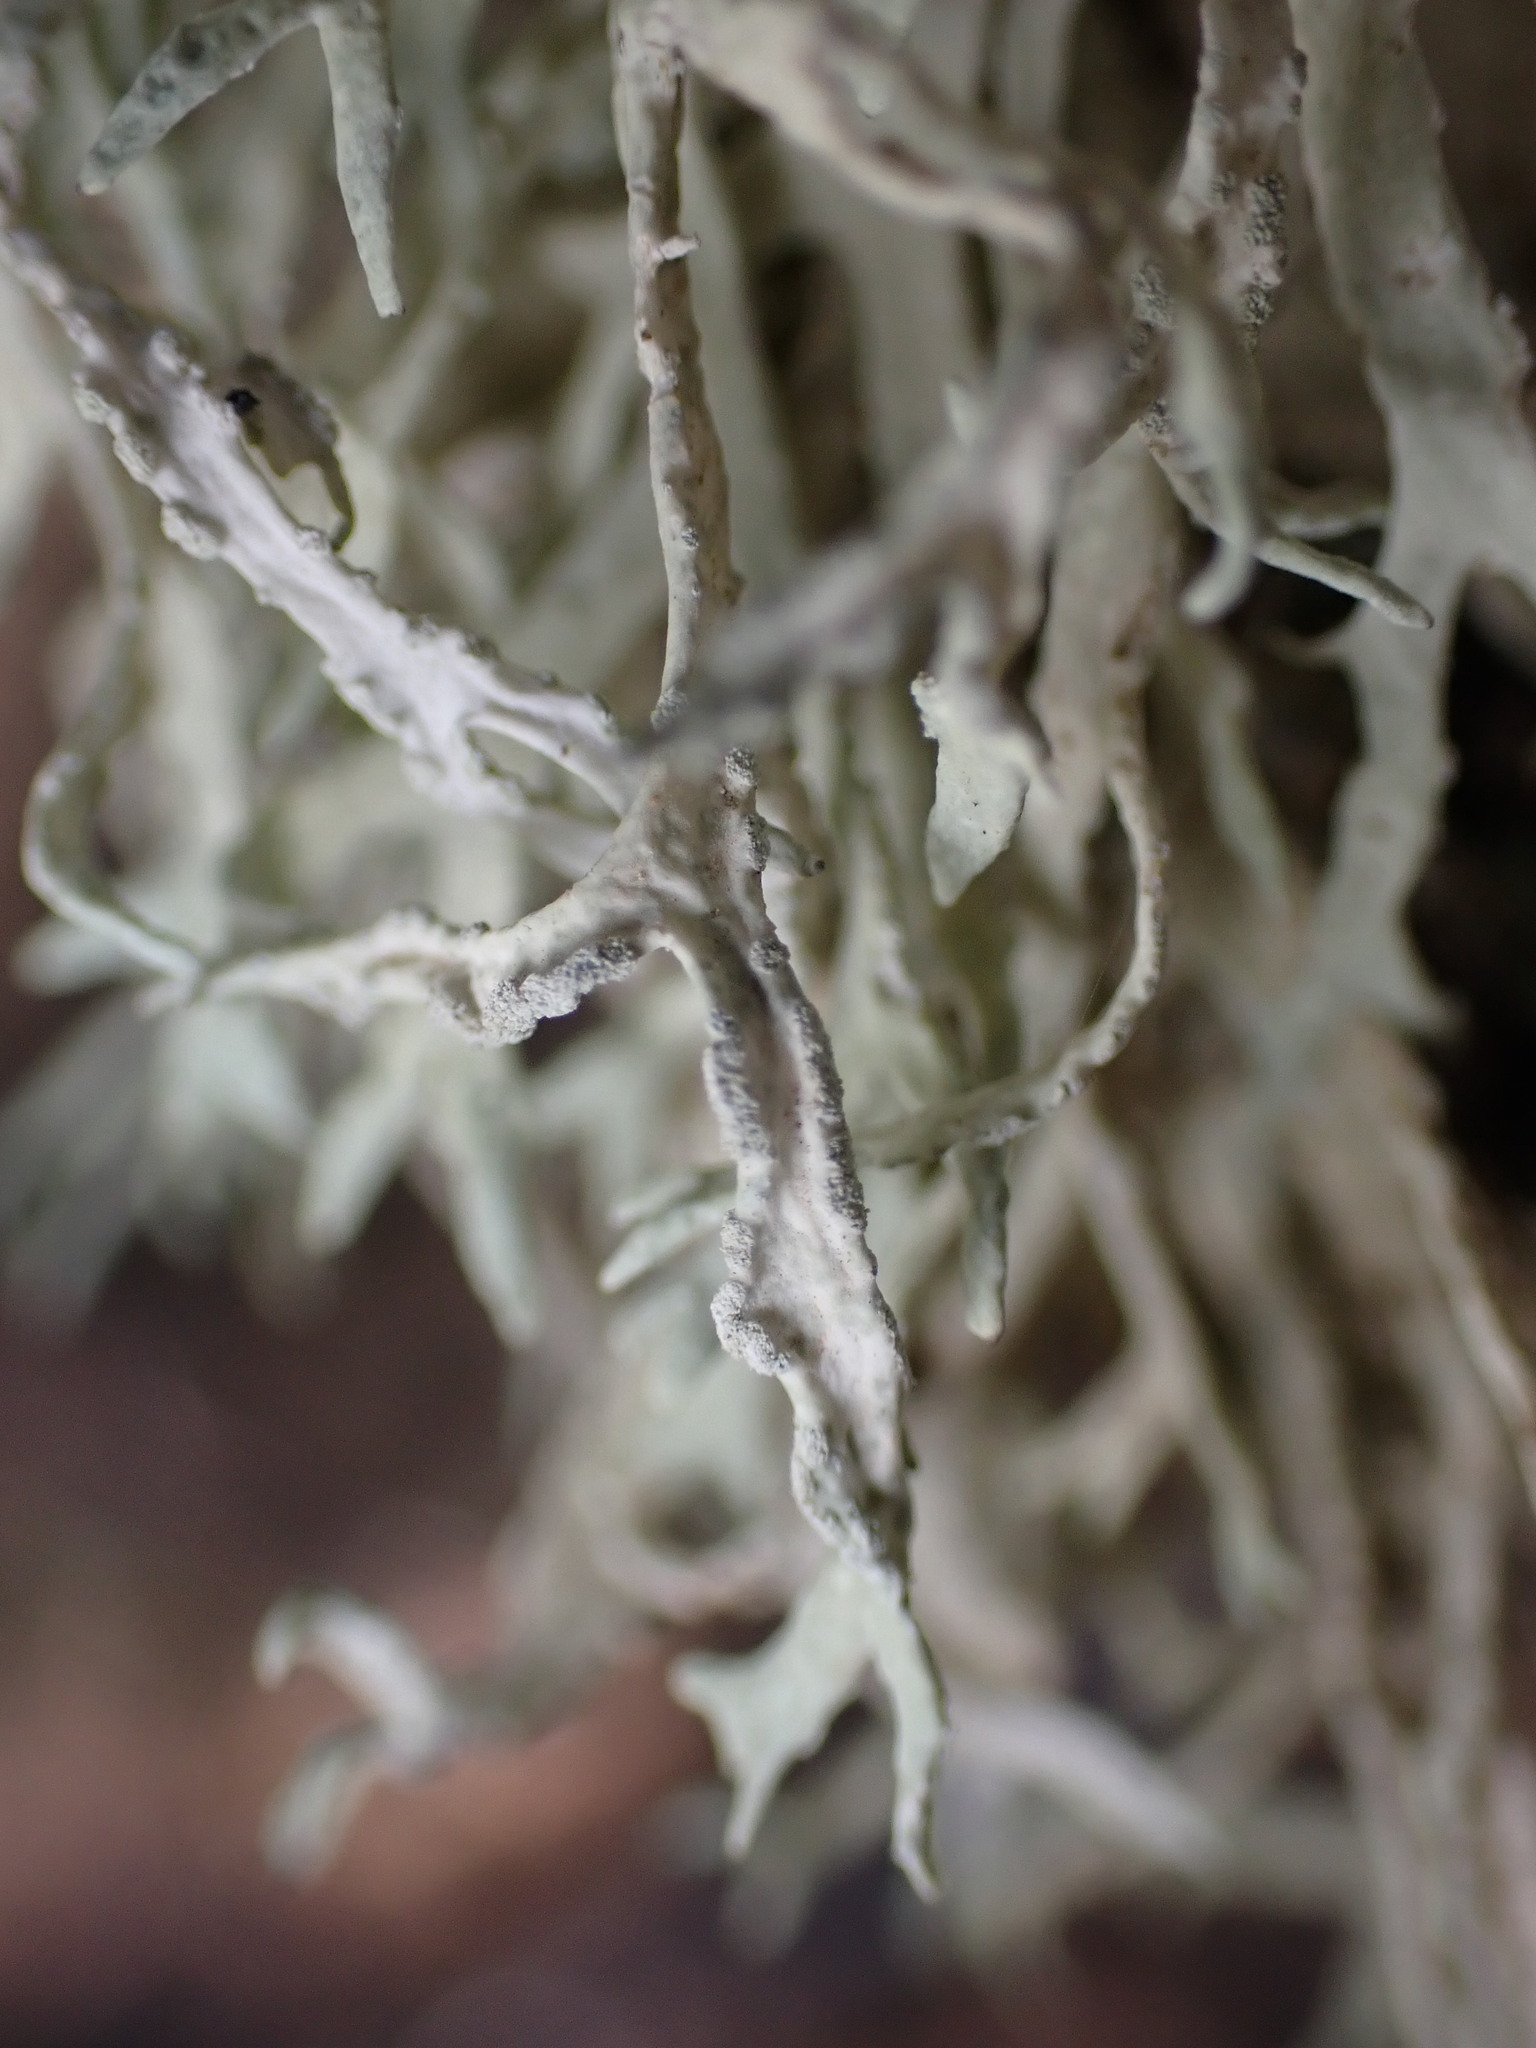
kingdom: Fungi
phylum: Ascomycota
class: Lecanoromycetes
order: Lecanorales
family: Parmeliaceae
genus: Evernia
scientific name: Evernia prunastri
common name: Oak moss
